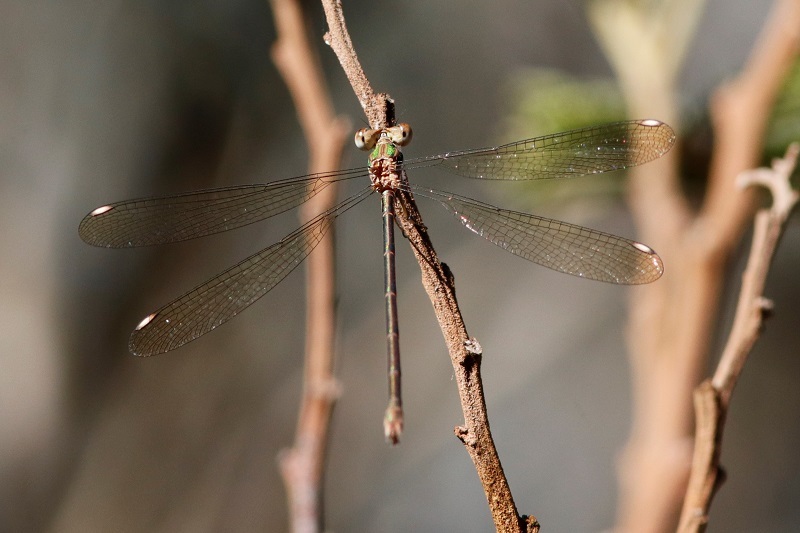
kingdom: Animalia
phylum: Arthropoda
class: Insecta
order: Odonata
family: Lestidae
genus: Lestes
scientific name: Lestes virgatus
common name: Smoky spreadwing
